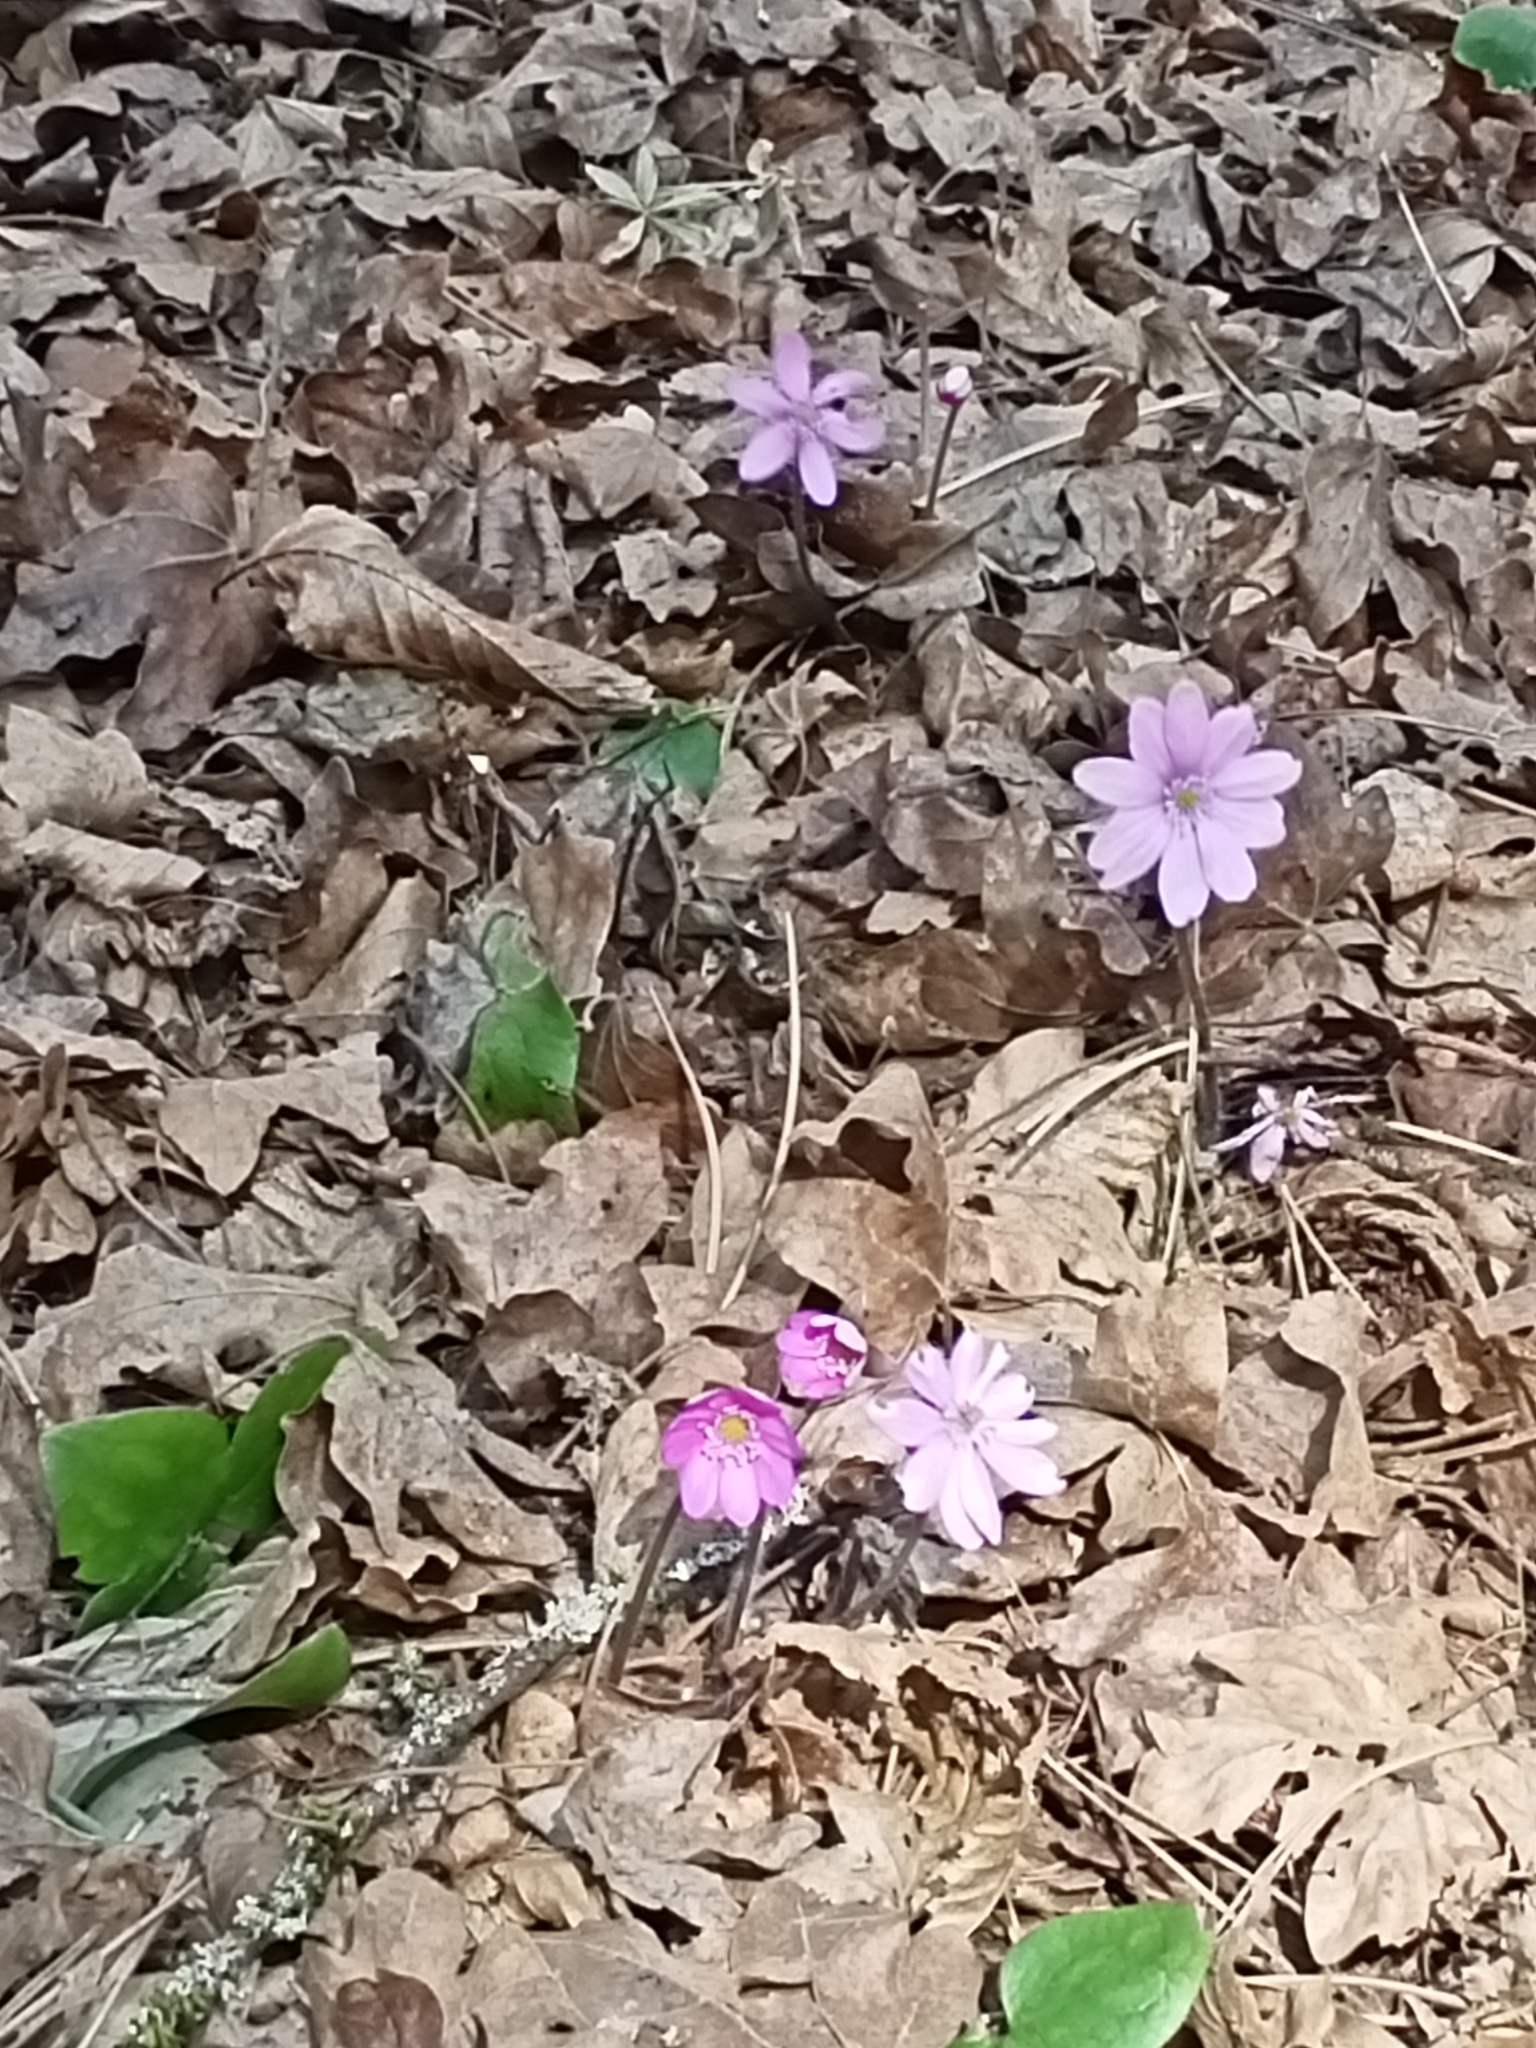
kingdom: Plantae
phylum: Tracheophyta
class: Magnoliopsida
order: Ranunculales
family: Ranunculaceae
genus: Hepatica
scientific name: Hepatica nobilis
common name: Liverleaf
